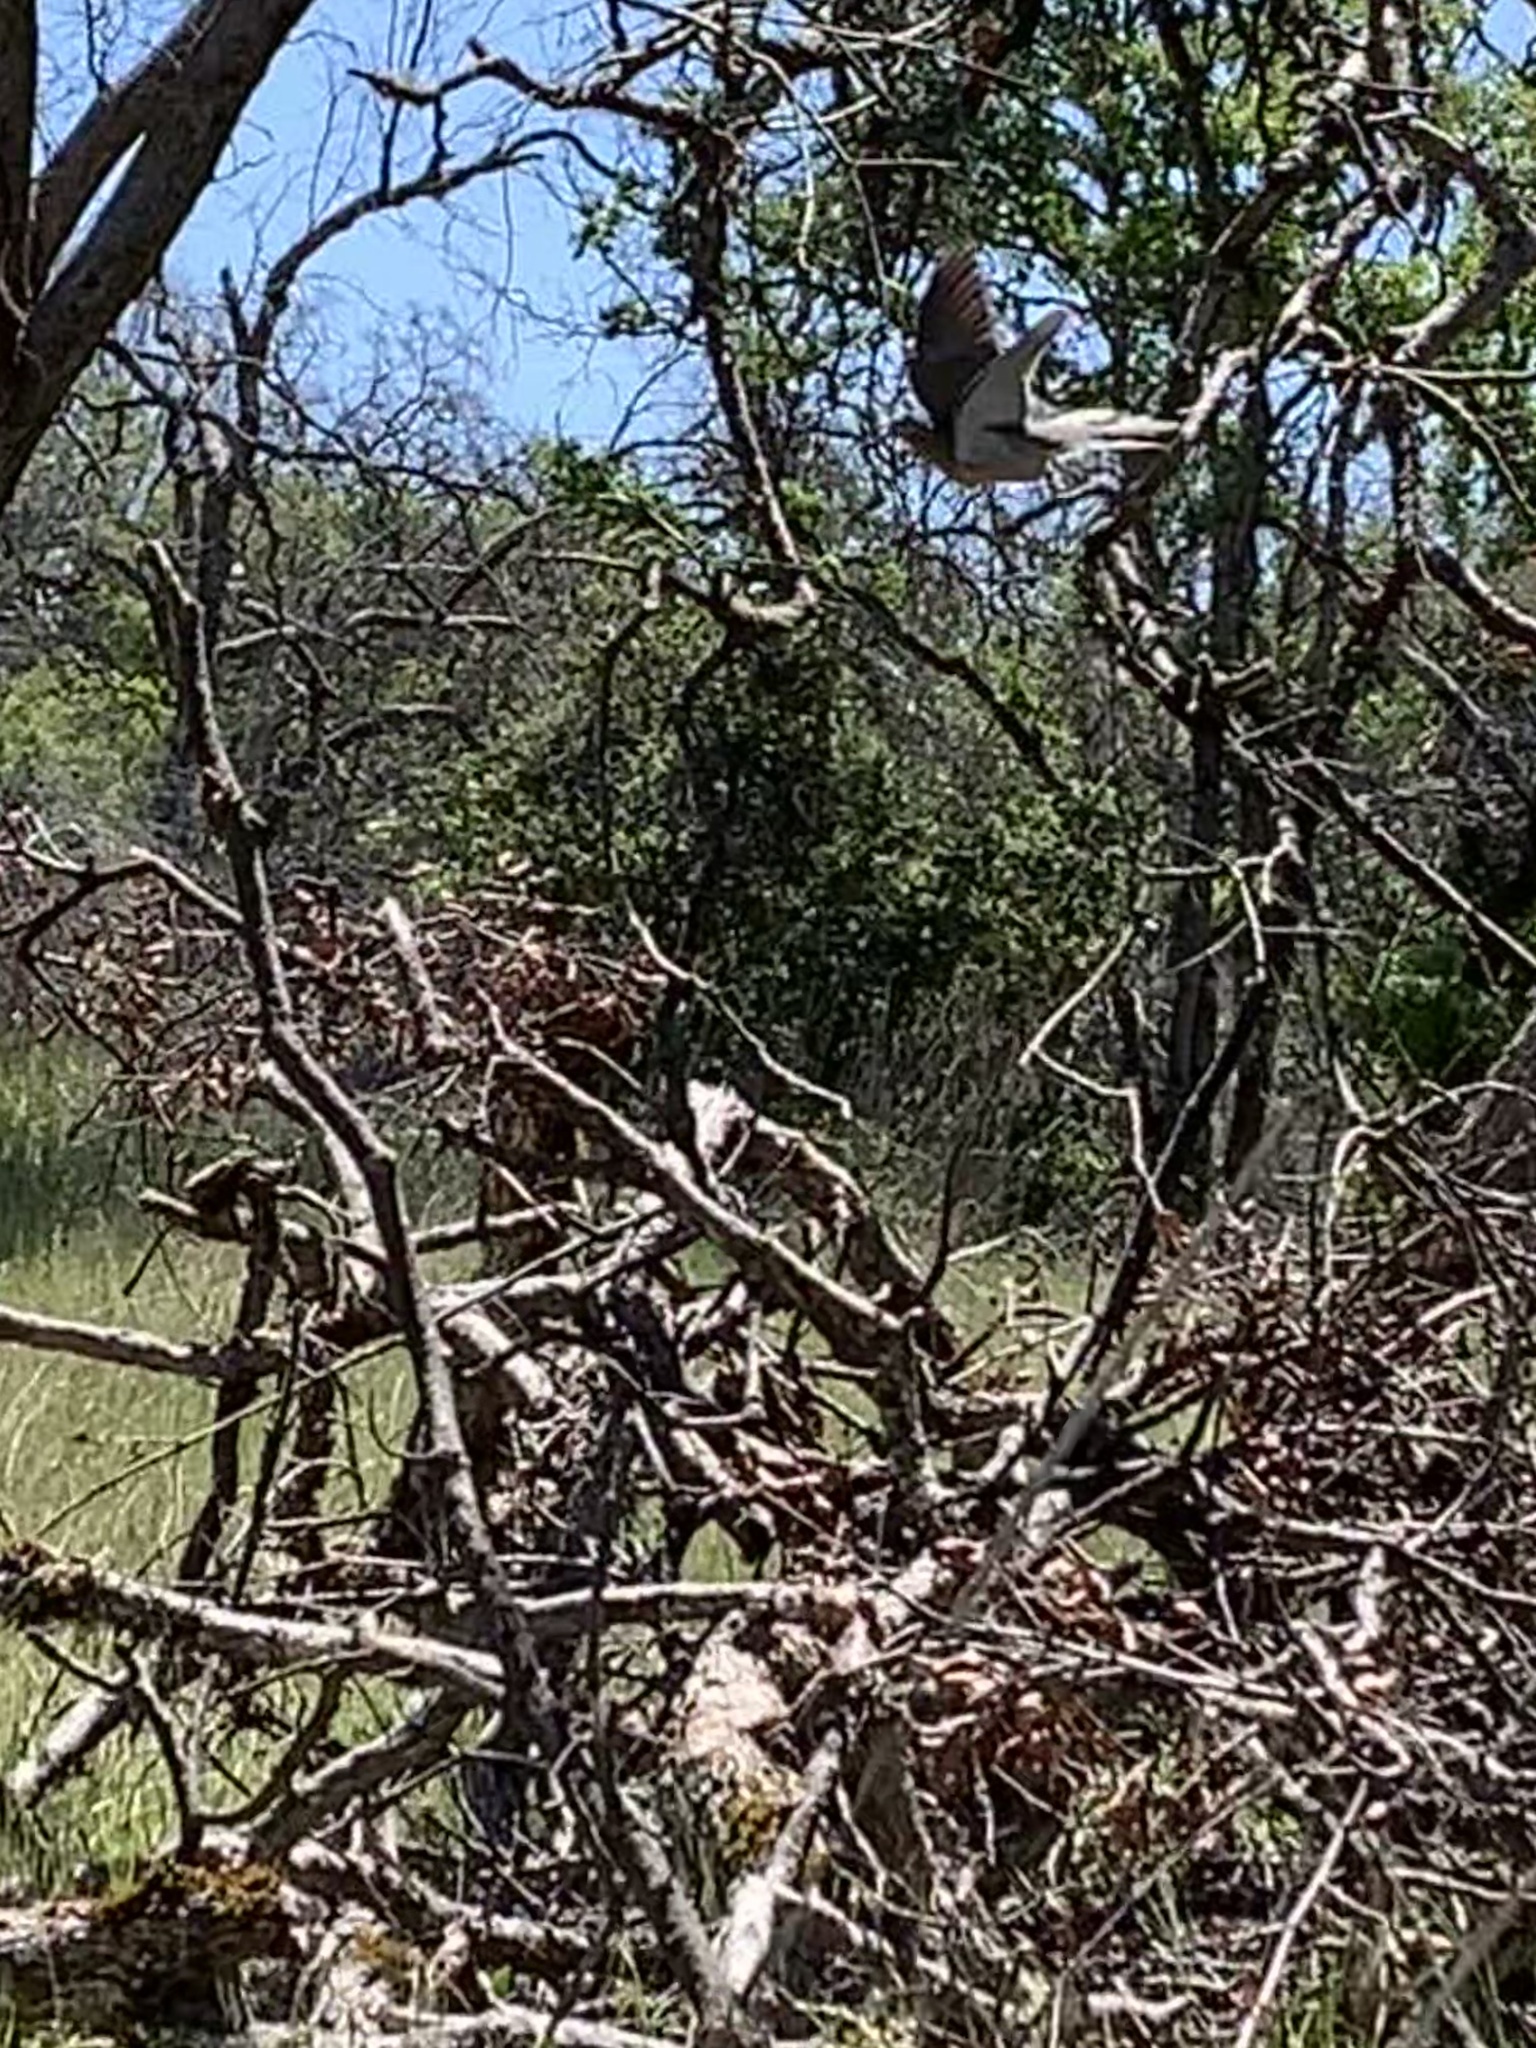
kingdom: Animalia
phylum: Chordata
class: Aves
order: Columbiformes
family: Columbidae
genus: Zenaida
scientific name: Zenaida macroura
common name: Mourning dove
